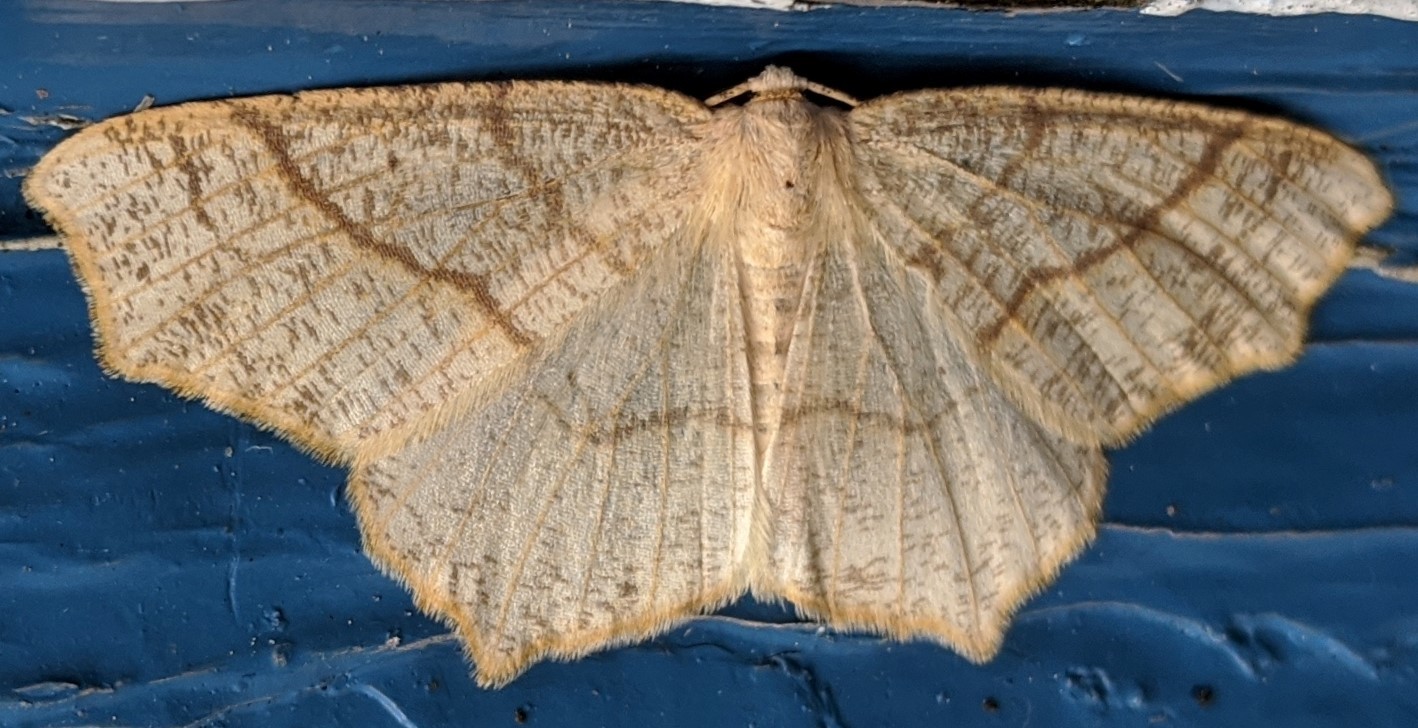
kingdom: Animalia
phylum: Arthropoda
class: Insecta
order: Lepidoptera
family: Geometridae
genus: Besma
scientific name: Besma quercivoraria
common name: Oak besma
